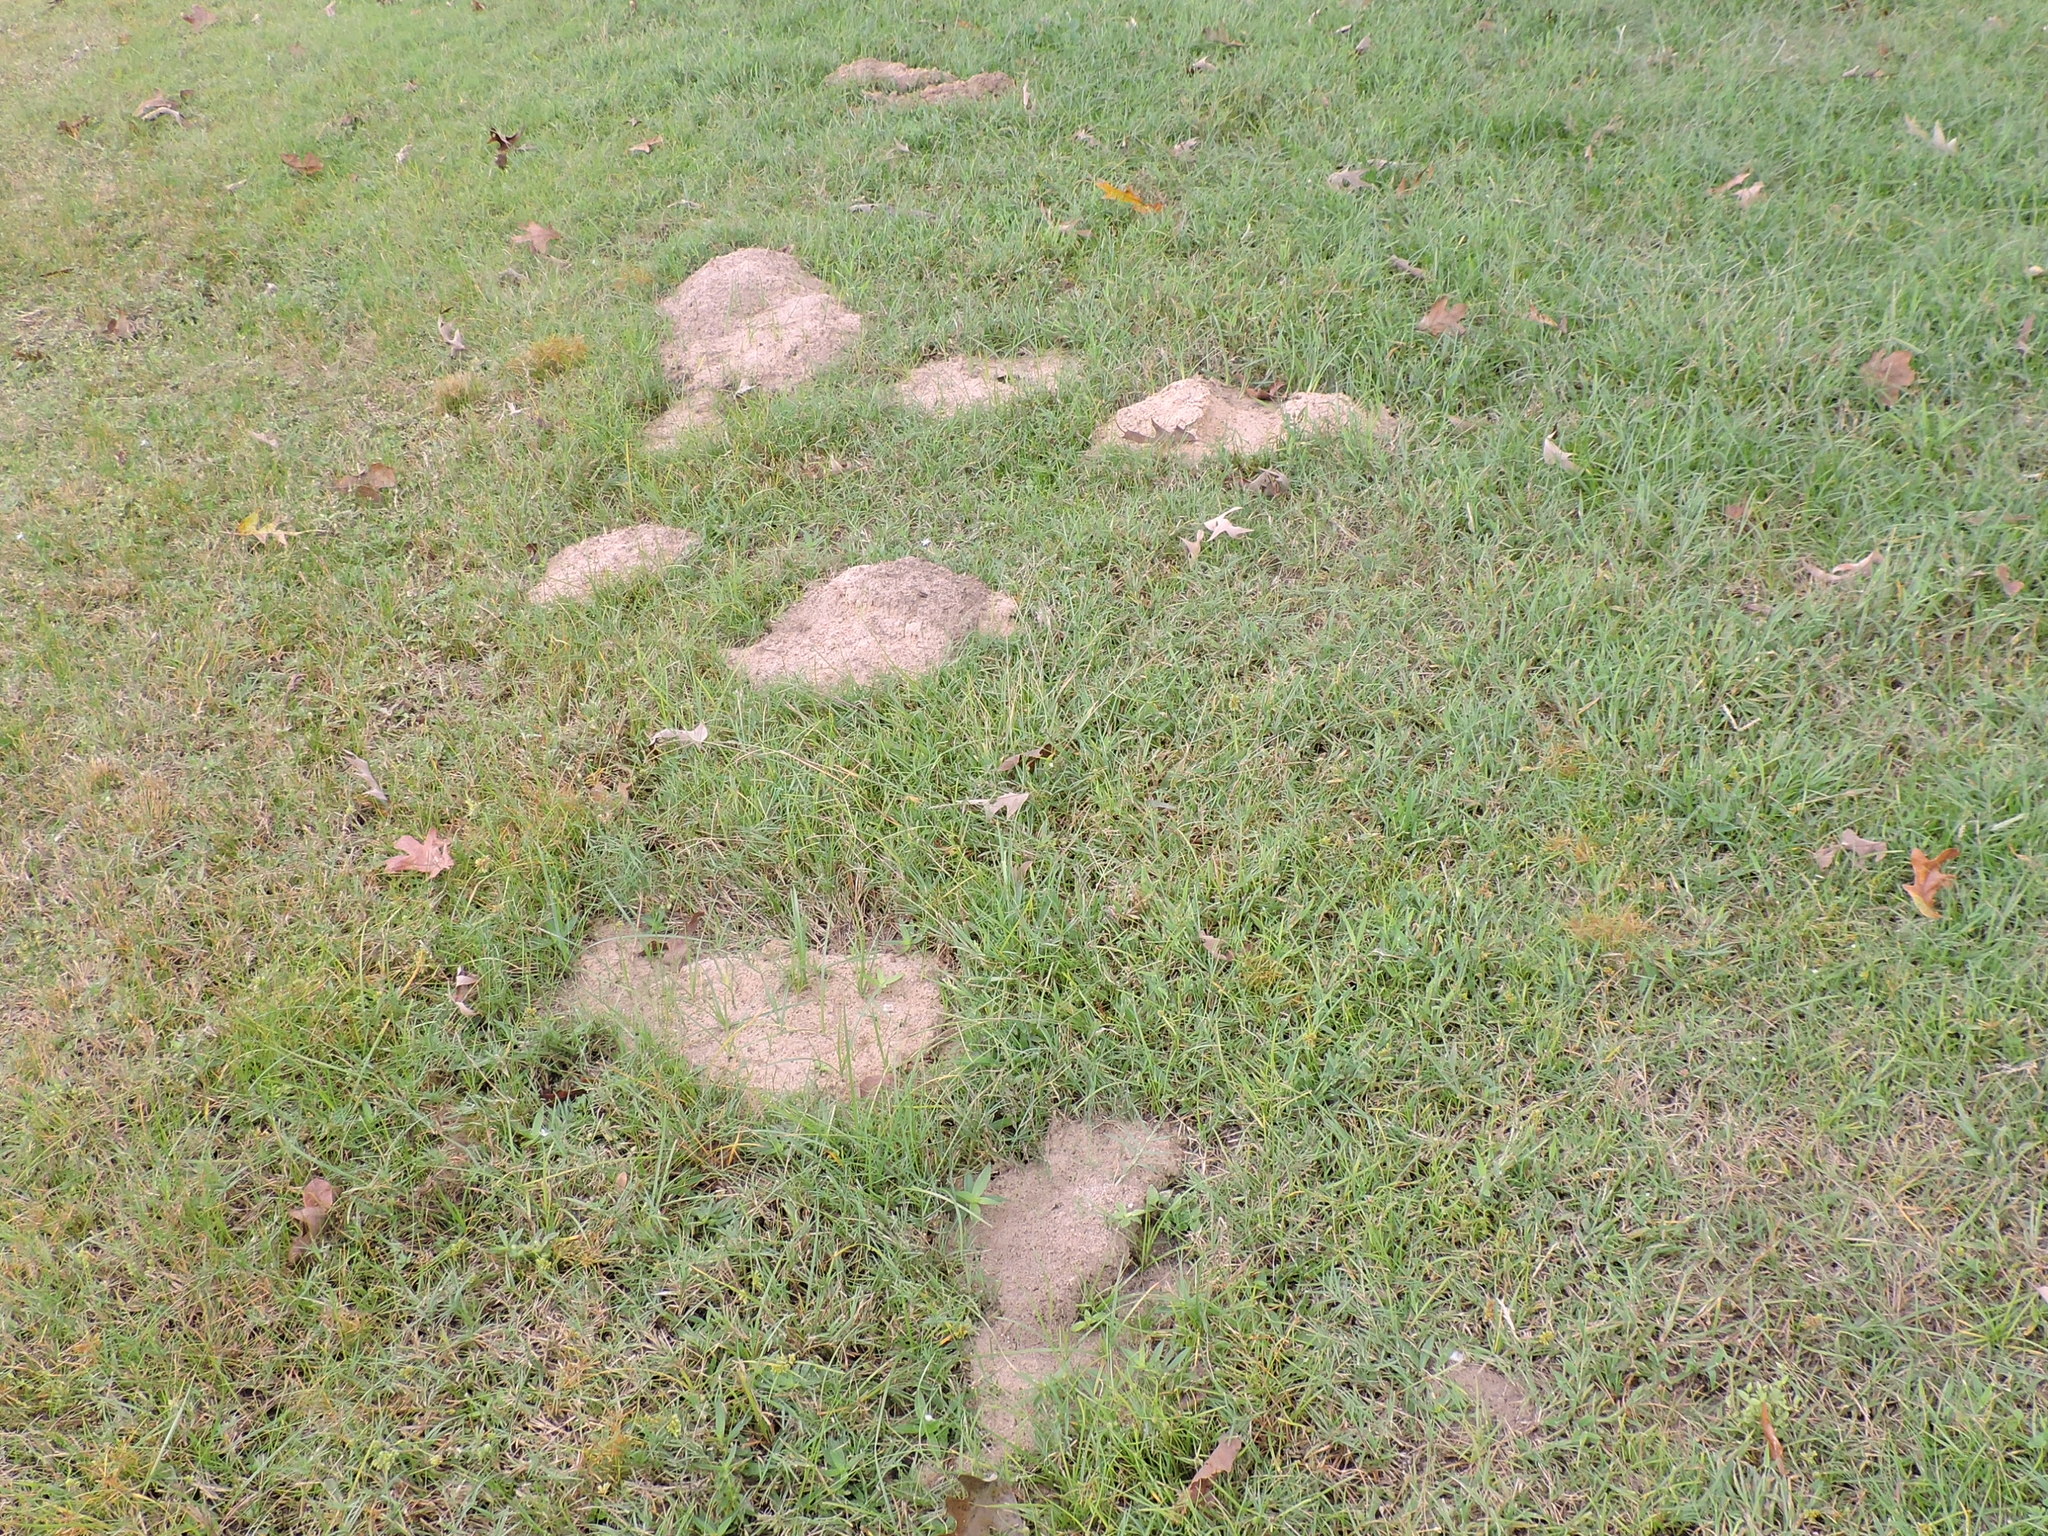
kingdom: Animalia
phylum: Chordata
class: Mammalia
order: Rodentia
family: Geomyidae
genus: Geomys
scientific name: Geomys breviceps
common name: Baird's pocket gopher
